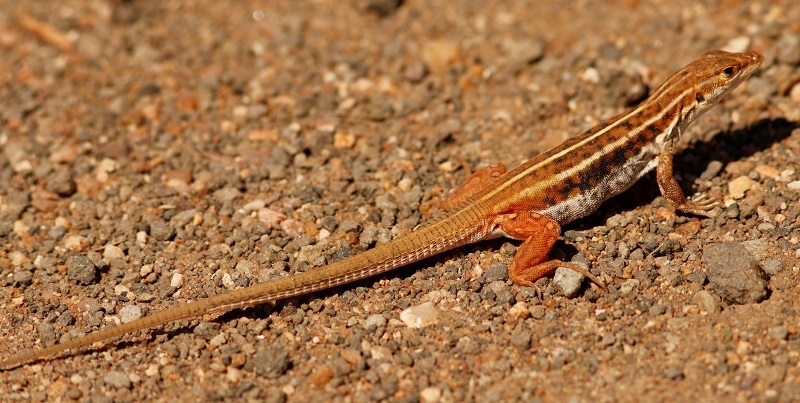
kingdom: Animalia
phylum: Chordata
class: Squamata
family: Lacertidae
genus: Heliobolus
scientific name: Heliobolus lugubris
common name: Bushveld lizard
